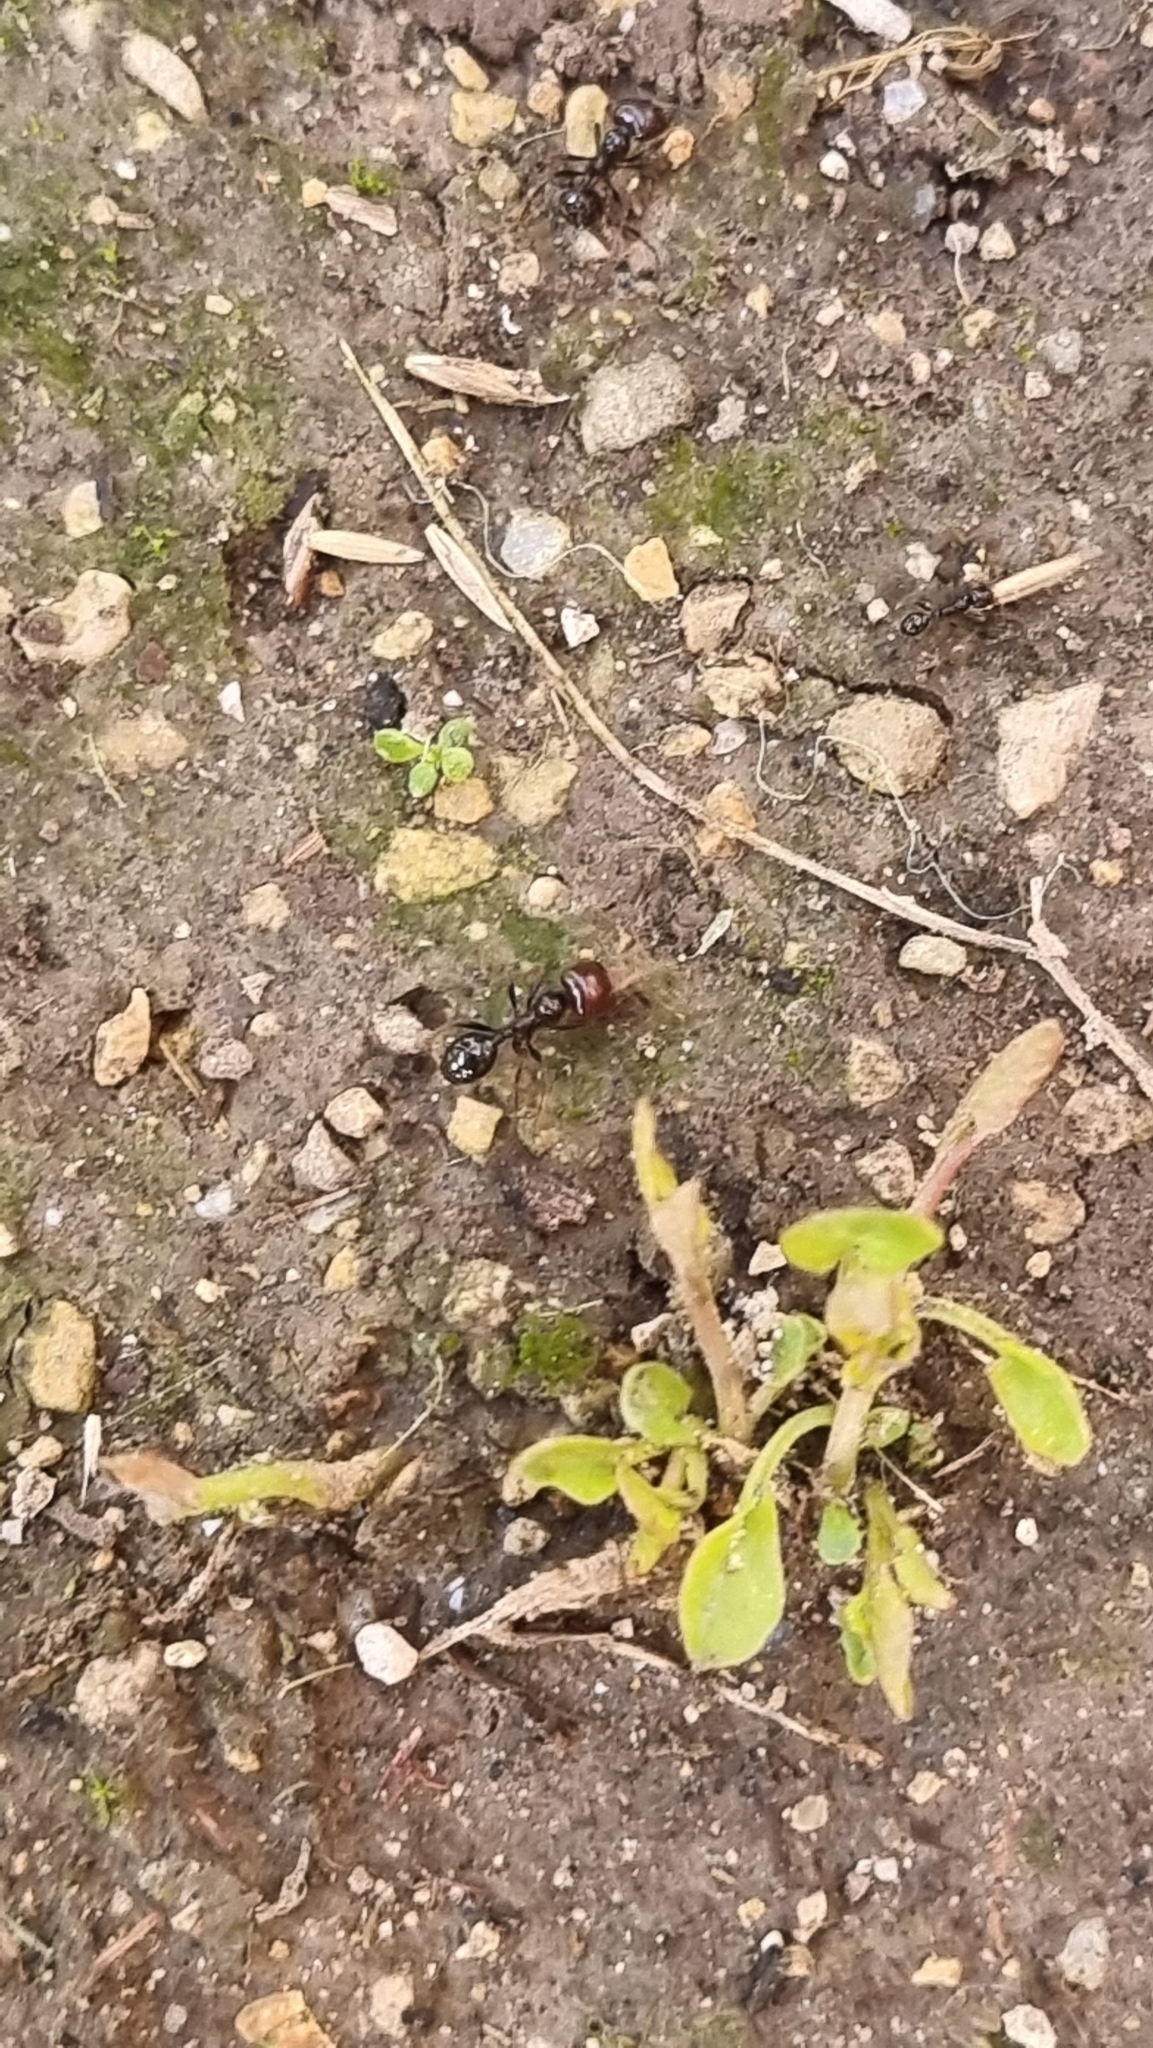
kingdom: Animalia
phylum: Arthropoda
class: Insecta
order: Hymenoptera
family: Formicidae
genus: Messor
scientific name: Messor barbarus
